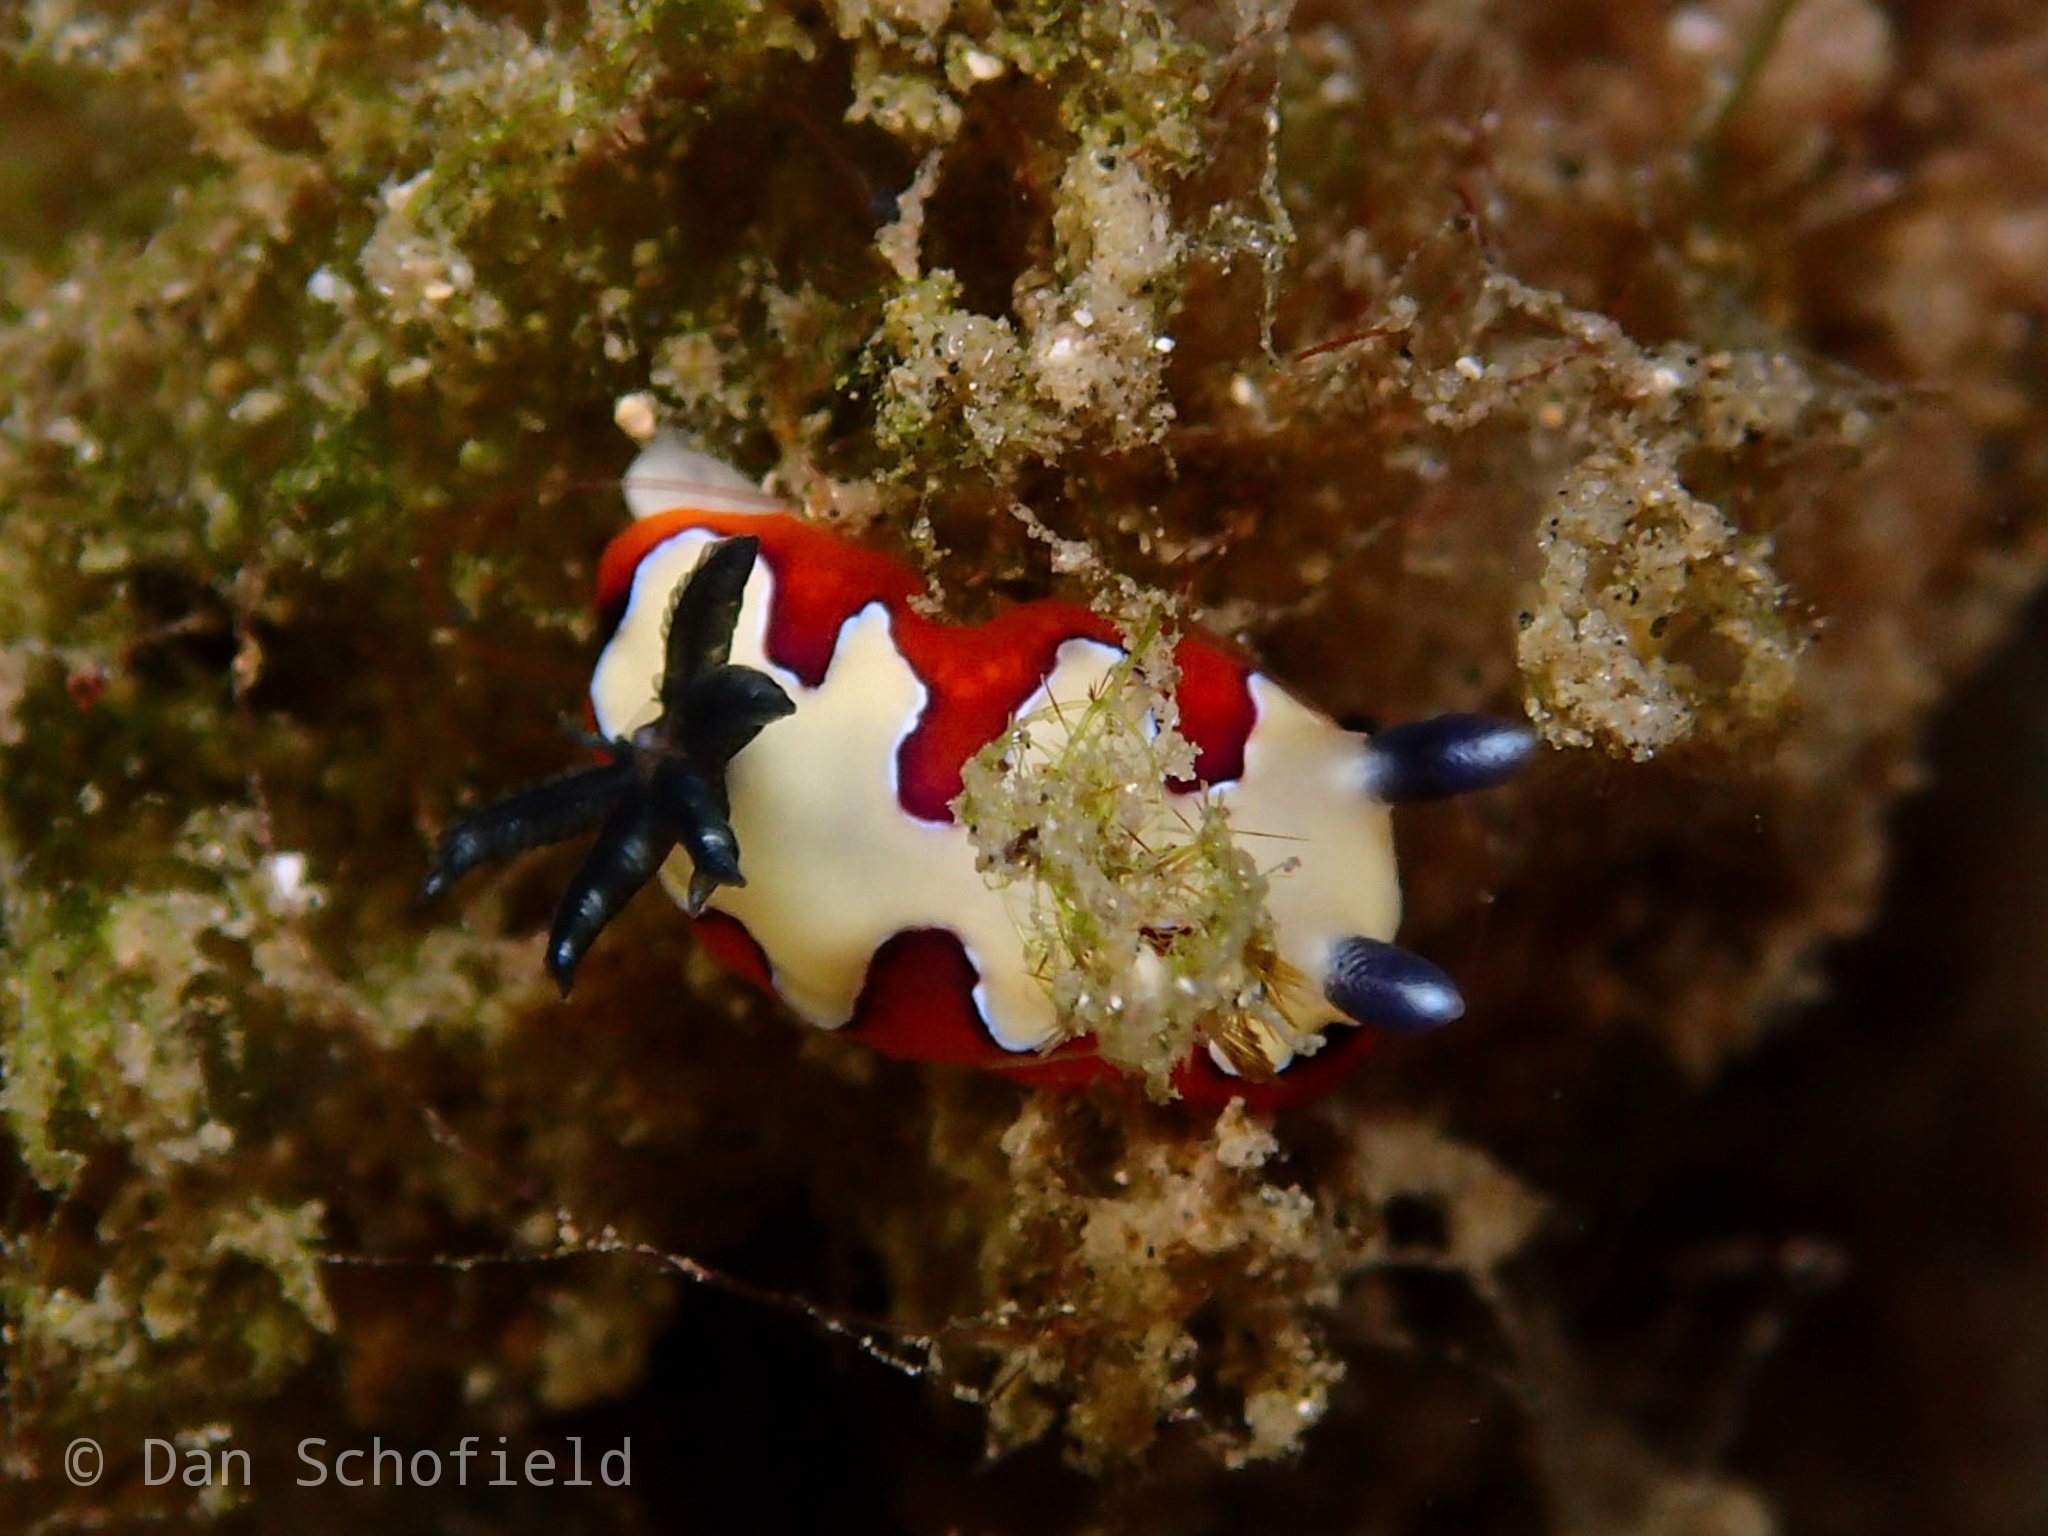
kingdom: Animalia
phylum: Mollusca
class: Gastropoda
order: Nudibranchia
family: Chromodorididae
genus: Goniobranchus
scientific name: Goniobranchus fidelis
